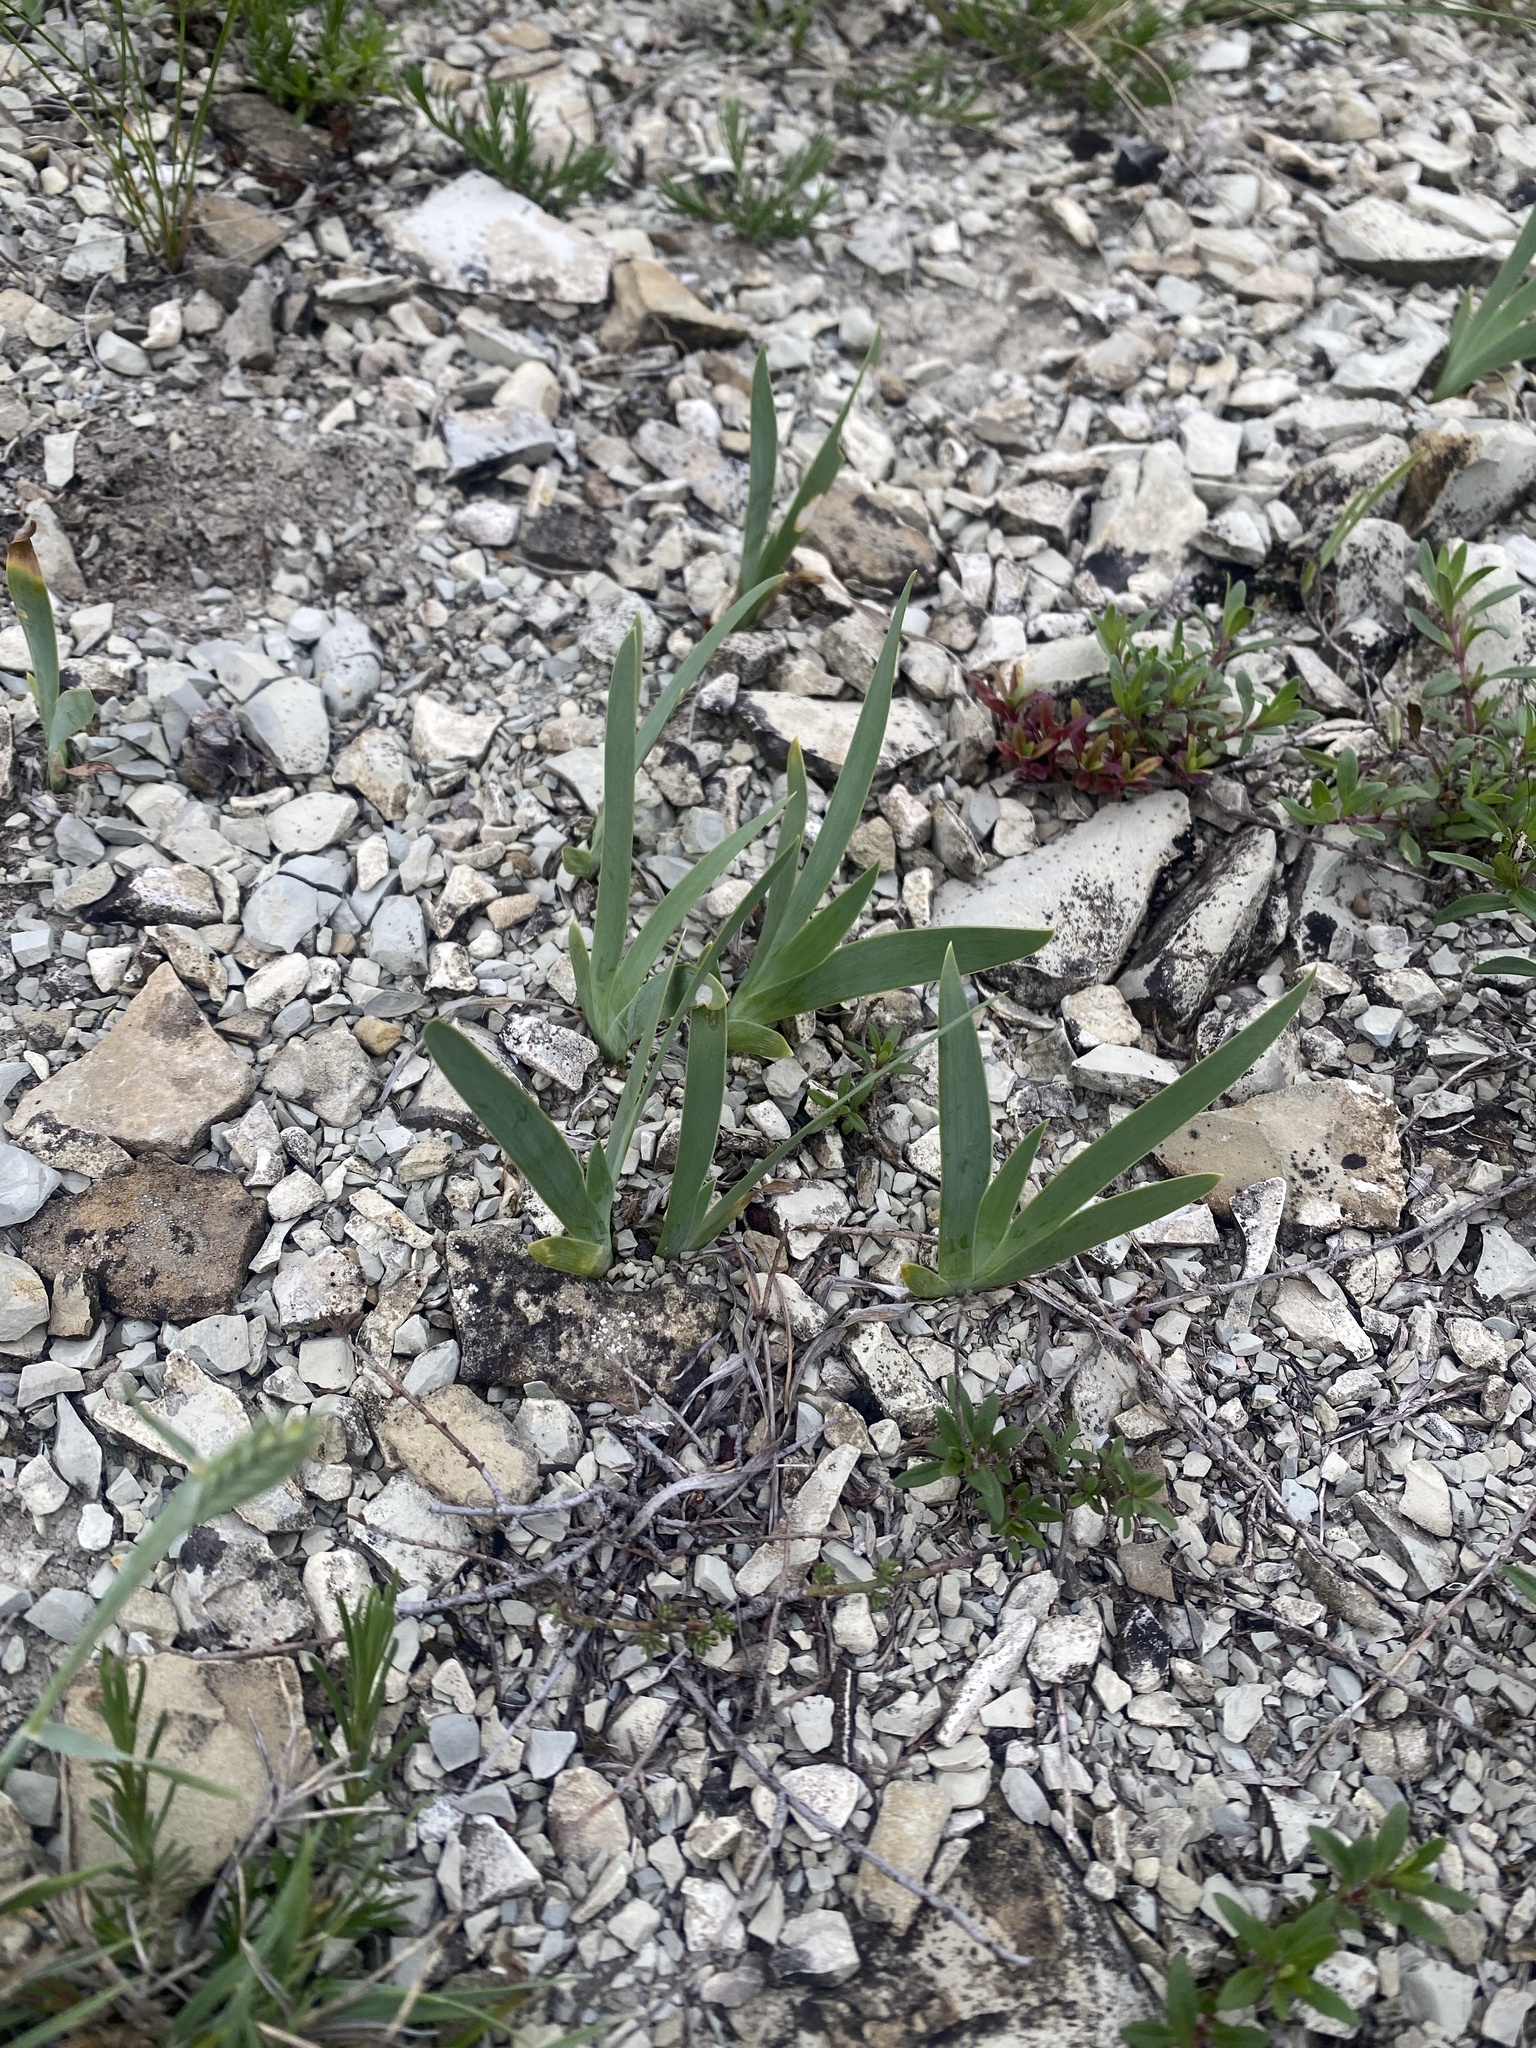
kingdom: Plantae
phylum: Tracheophyta
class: Liliopsida
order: Asparagales
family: Iridaceae
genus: Iris
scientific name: Iris pumila
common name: Dwarf iris
